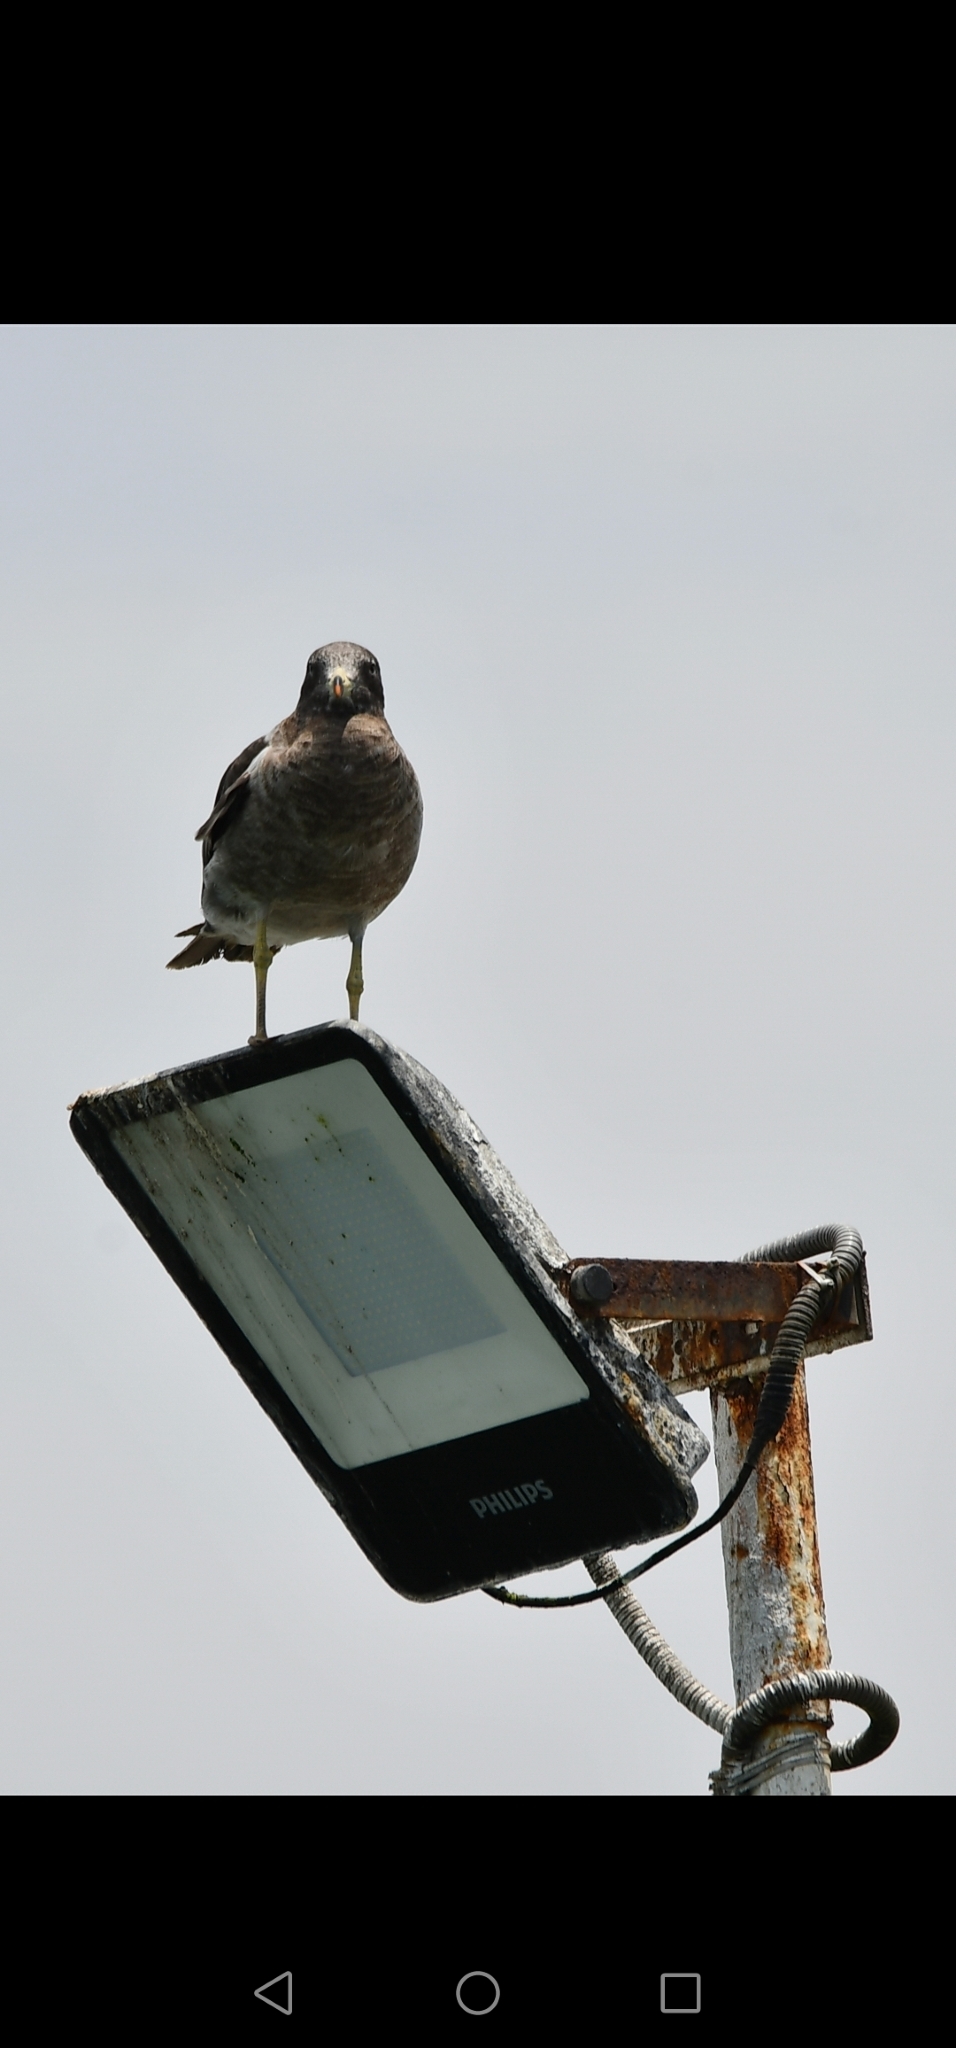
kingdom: Animalia
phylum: Chordata
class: Aves
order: Charadriiformes
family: Laridae
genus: Larus
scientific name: Larus belcheri
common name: Belcher's gull
